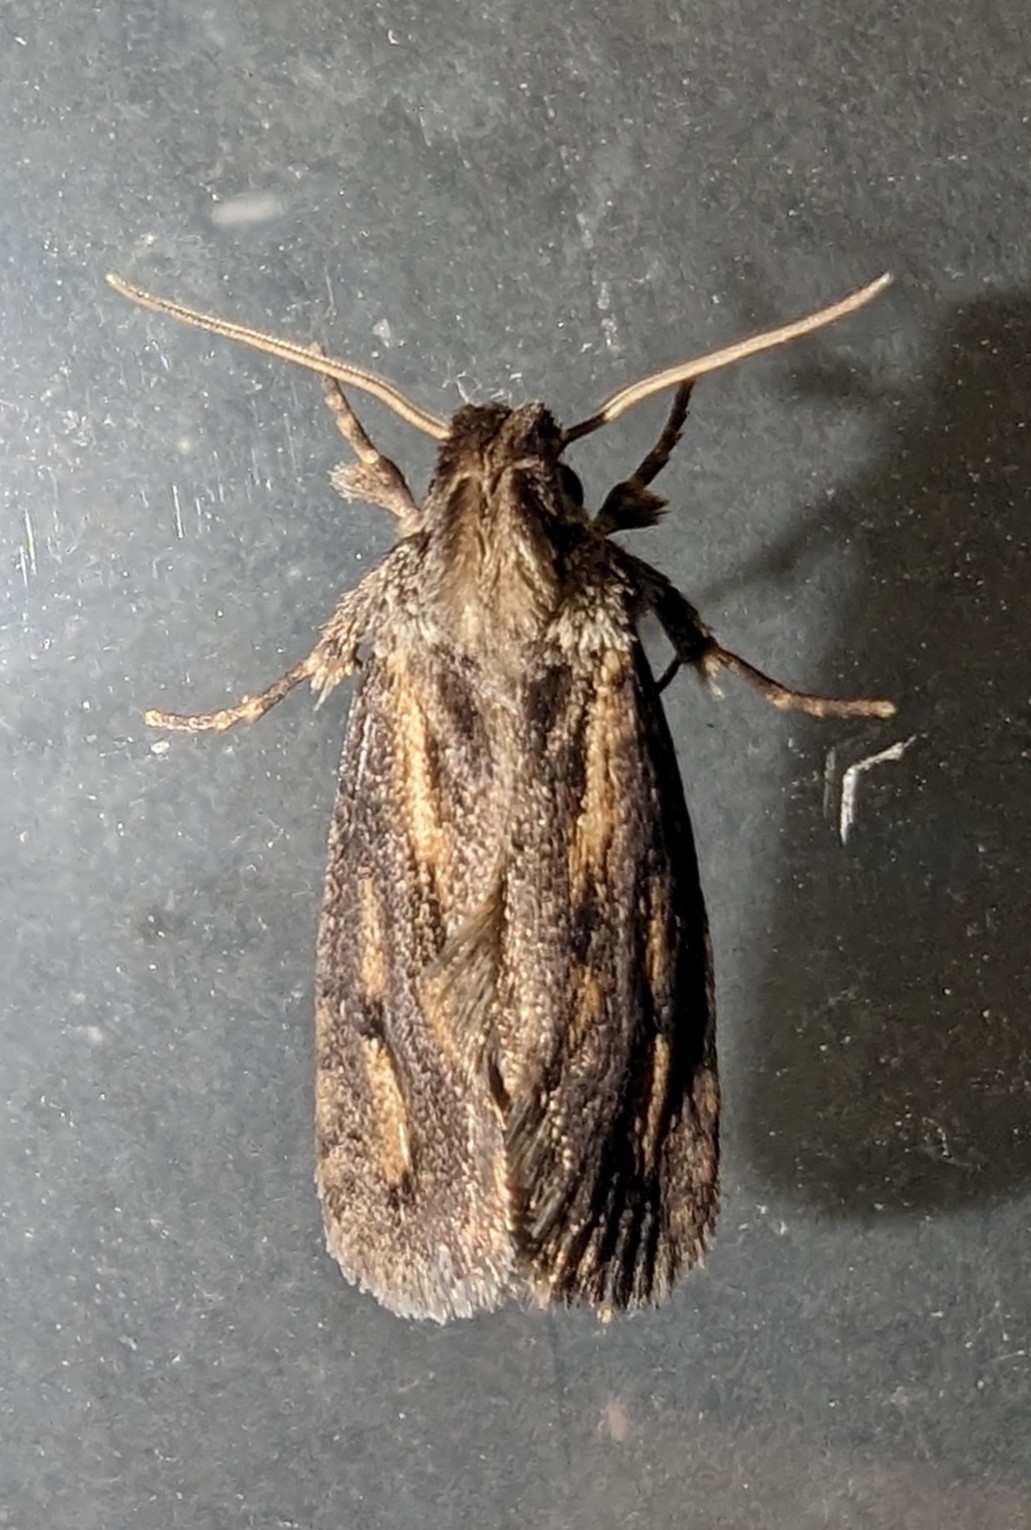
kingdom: Animalia
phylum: Arthropoda
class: Insecta
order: Lepidoptera
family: Tineidae
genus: Acrolophus
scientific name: Acrolophus popeanella
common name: Clemens' grass tubeworm moth
